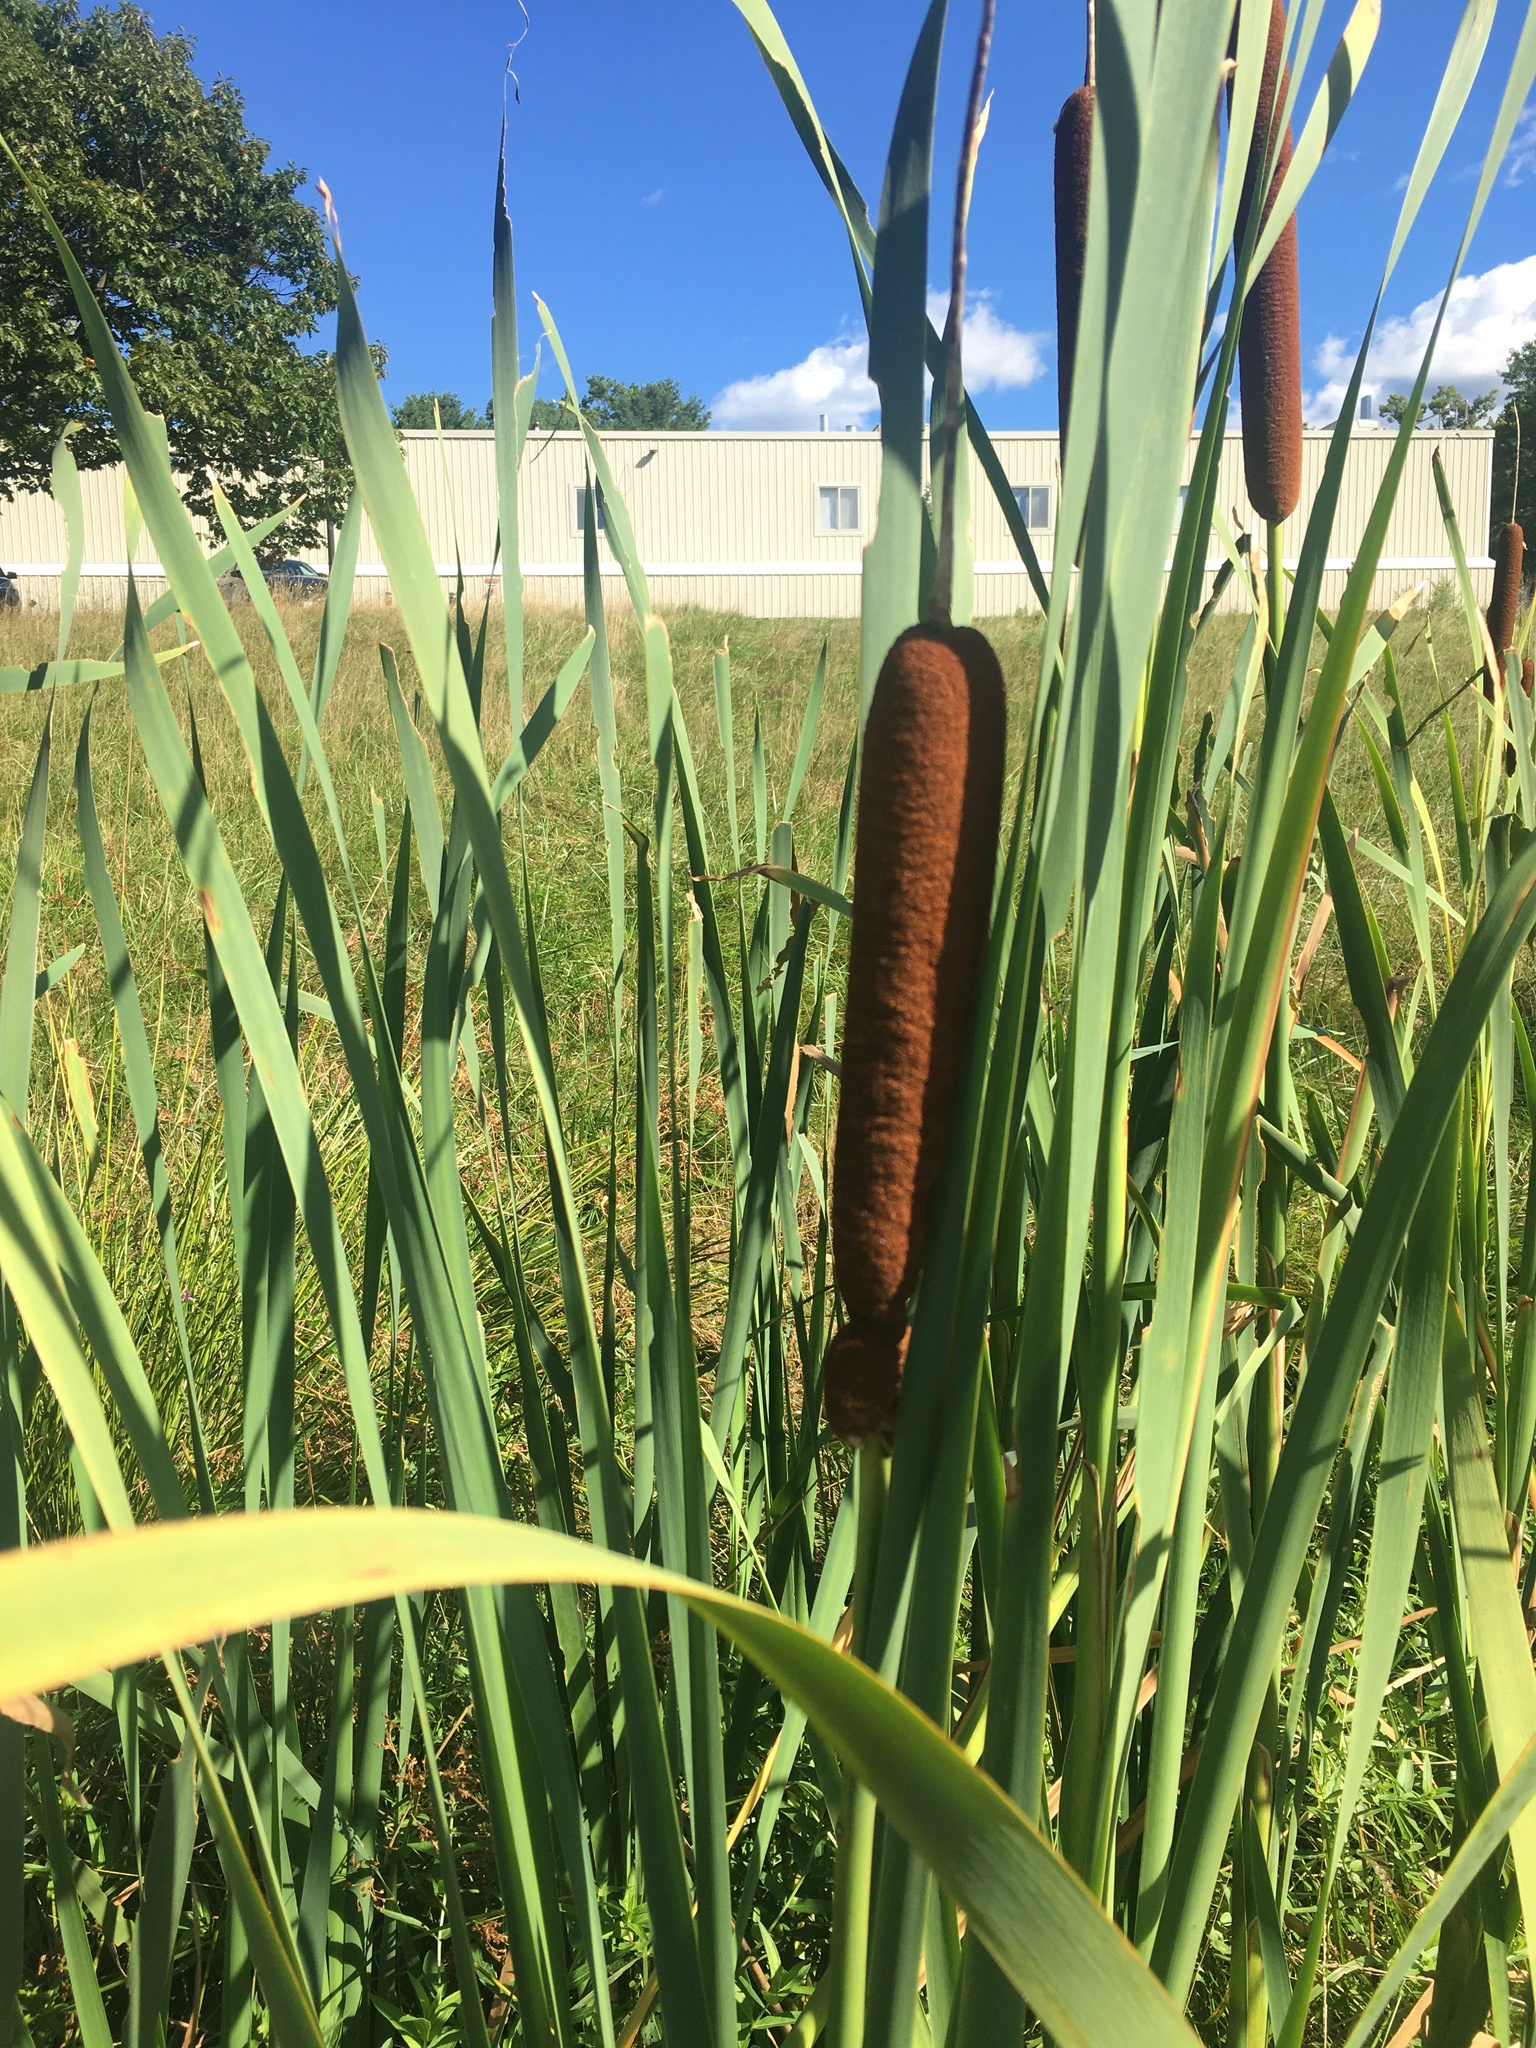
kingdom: Plantae
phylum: Tracheophyta
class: Liliopsida
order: Poales
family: Typhaceae
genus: Typha
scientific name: Typha latifolia
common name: Broadleaf cattail
